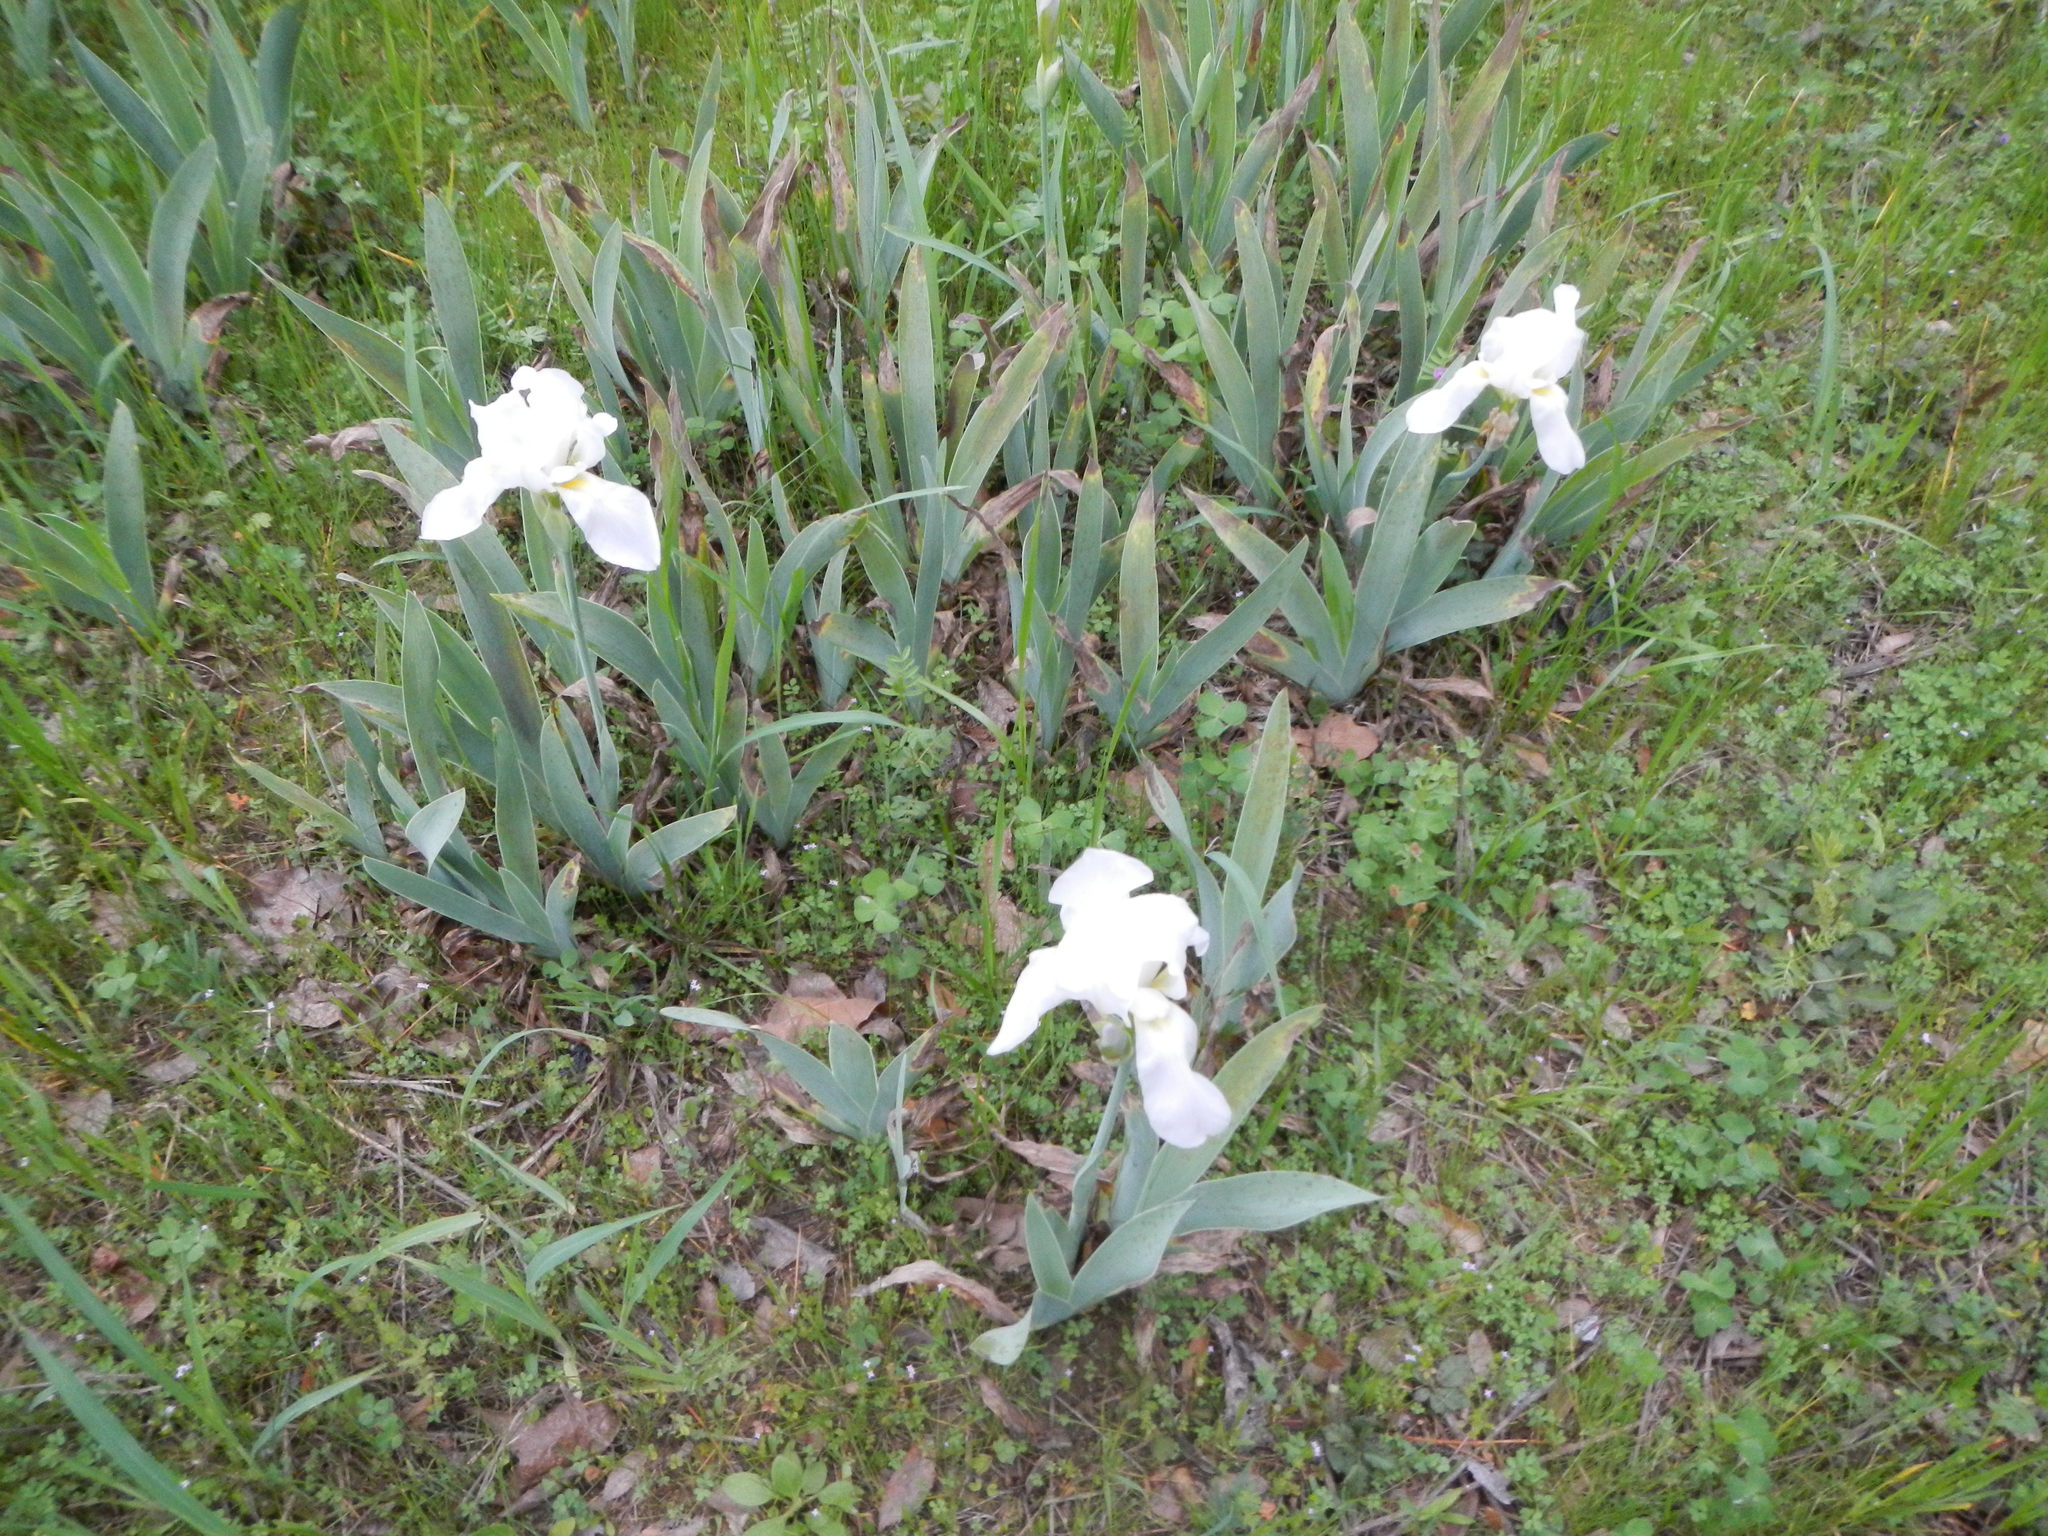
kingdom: Plantae
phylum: Tracheophyta
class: Liliopsida
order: Asparagales
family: Iridaceae
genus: Iris
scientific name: Iris florentina
